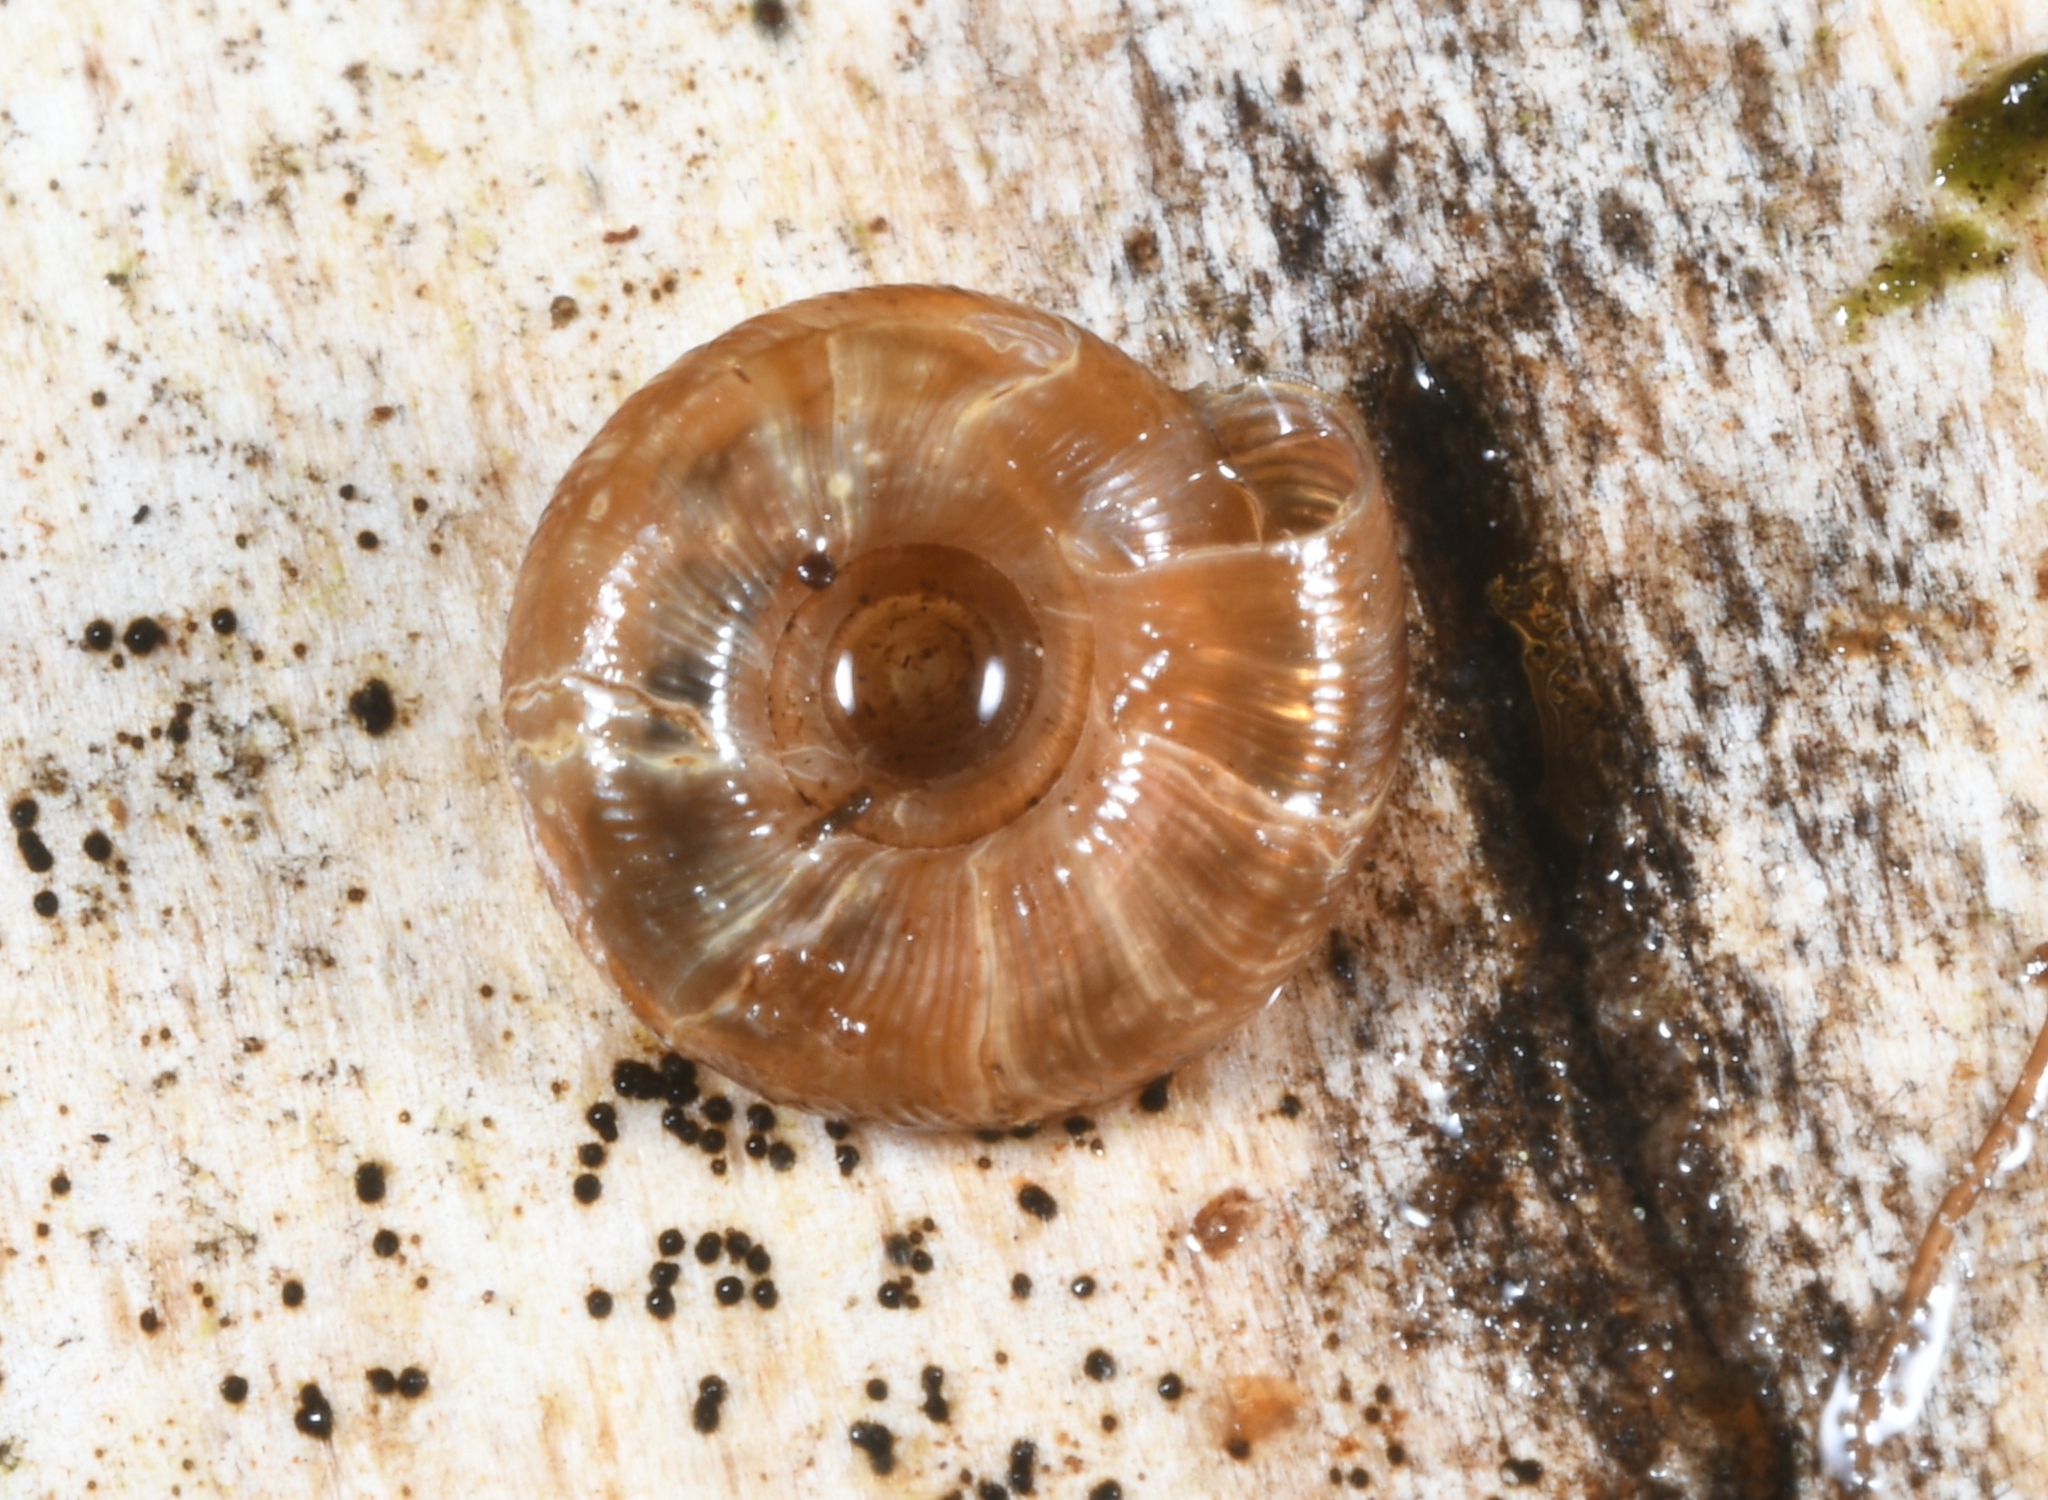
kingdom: Animalia
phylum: Mollusca
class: Gastropoda
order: Stylommatophora
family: Discidae
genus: Discus
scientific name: Discus rotundatus
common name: Rounded snail
